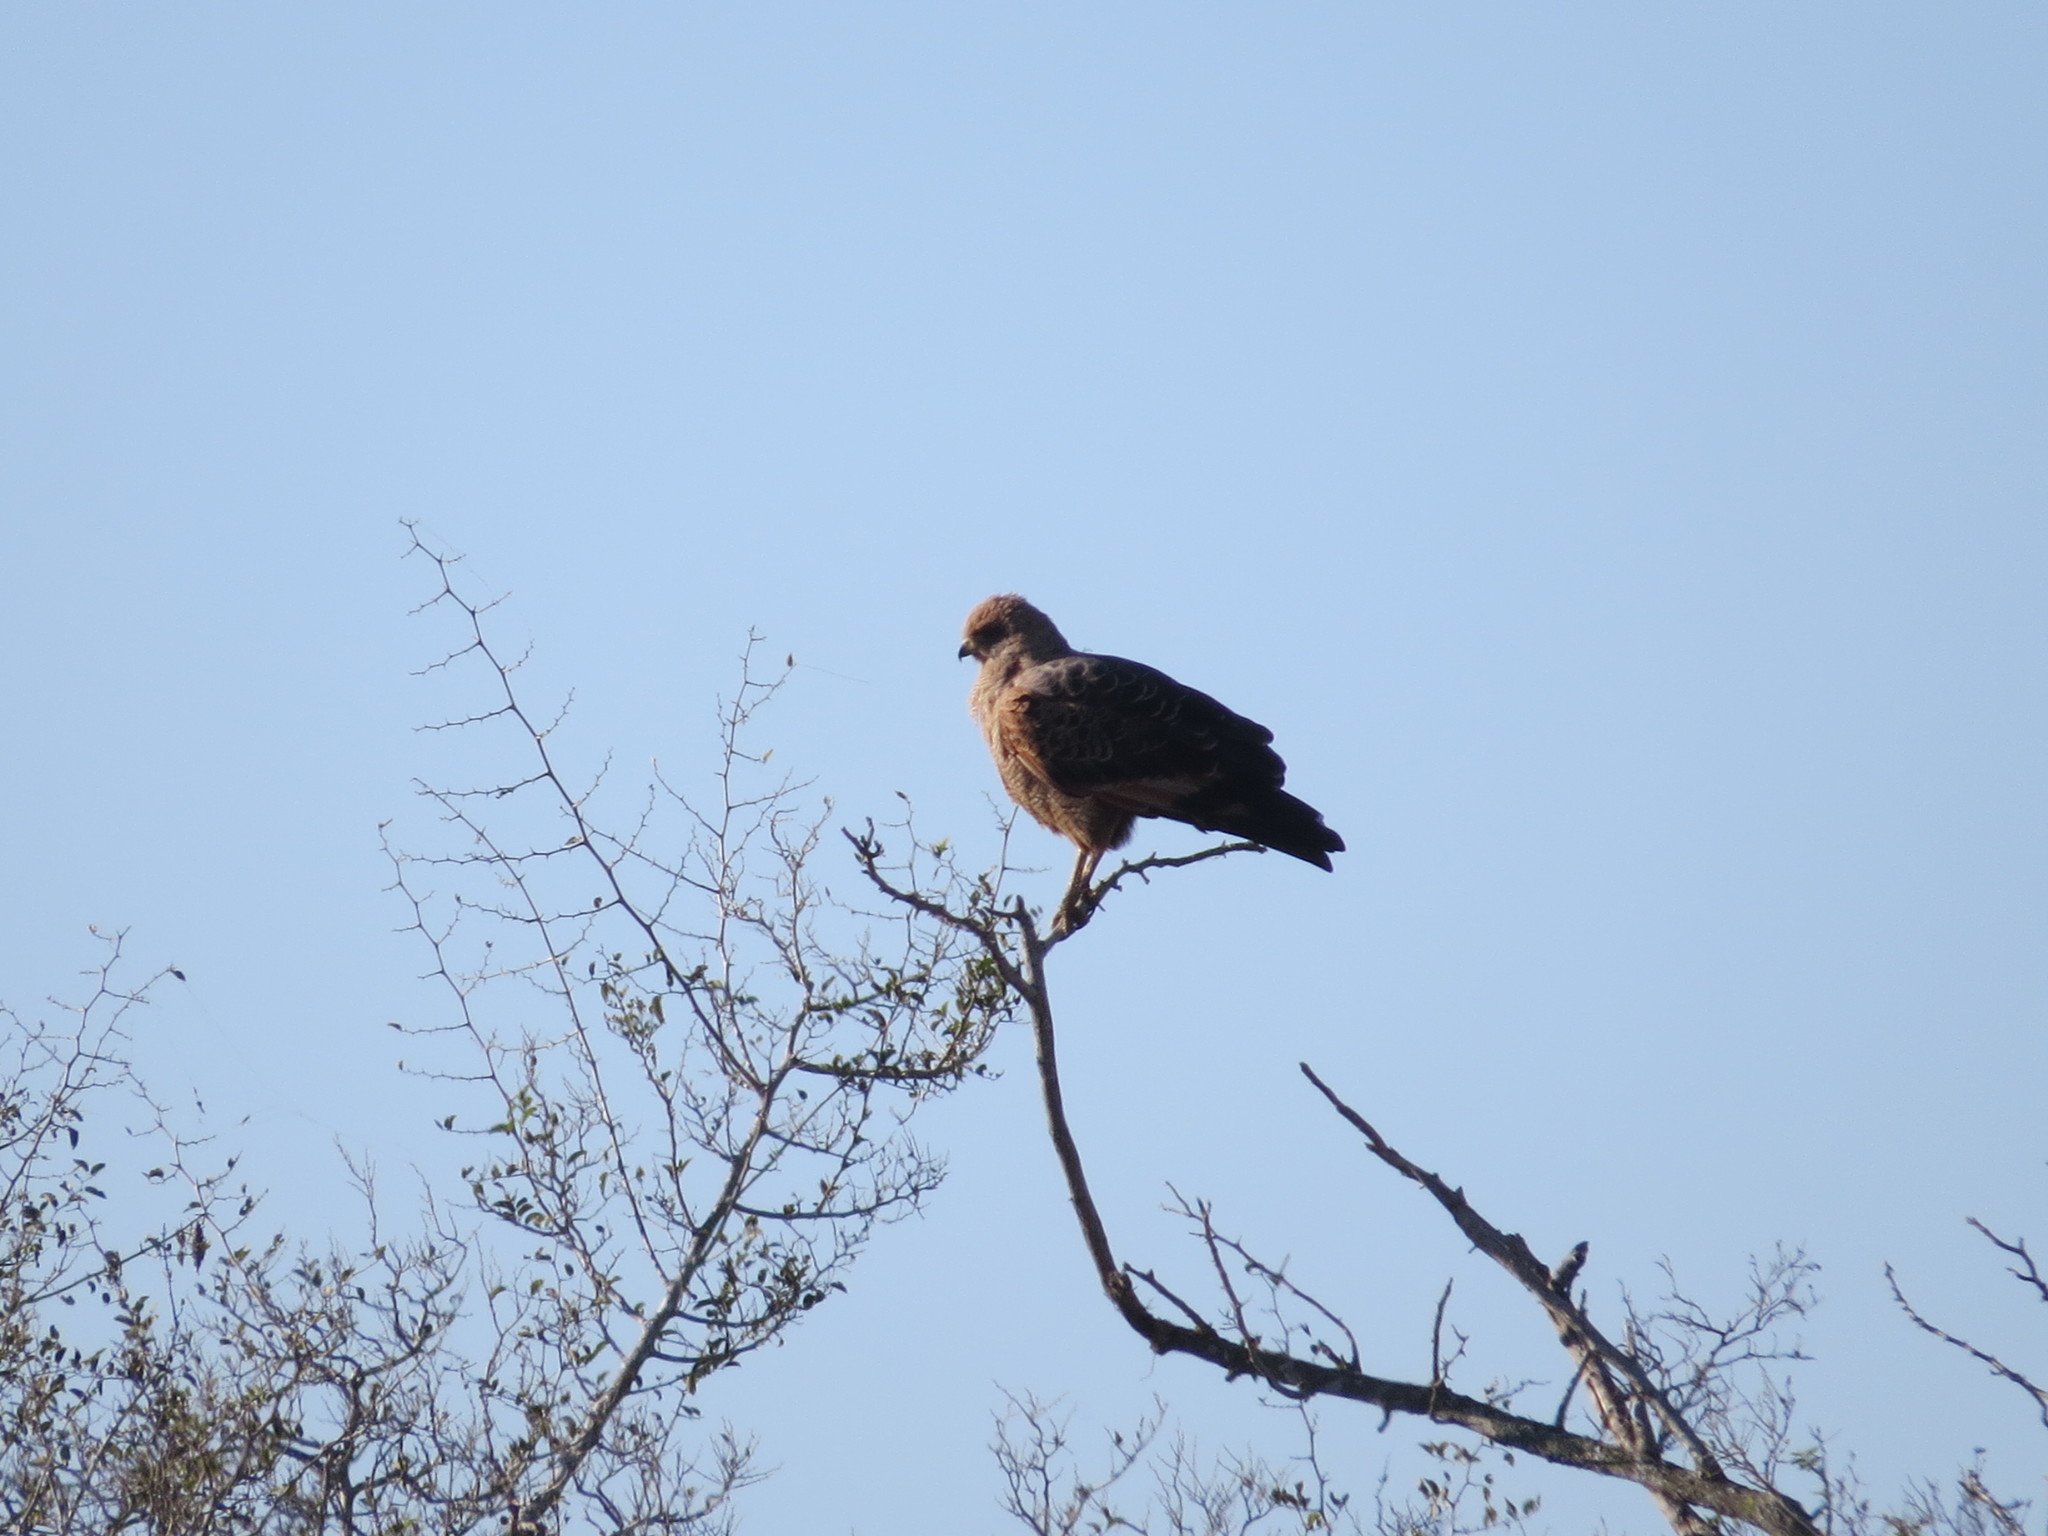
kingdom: Animalia
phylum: Chordata
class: Aves
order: Accipitriformes
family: Accipitridae
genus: Buteogallus
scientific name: Buteogallus meridionalis
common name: Savanna hawk
